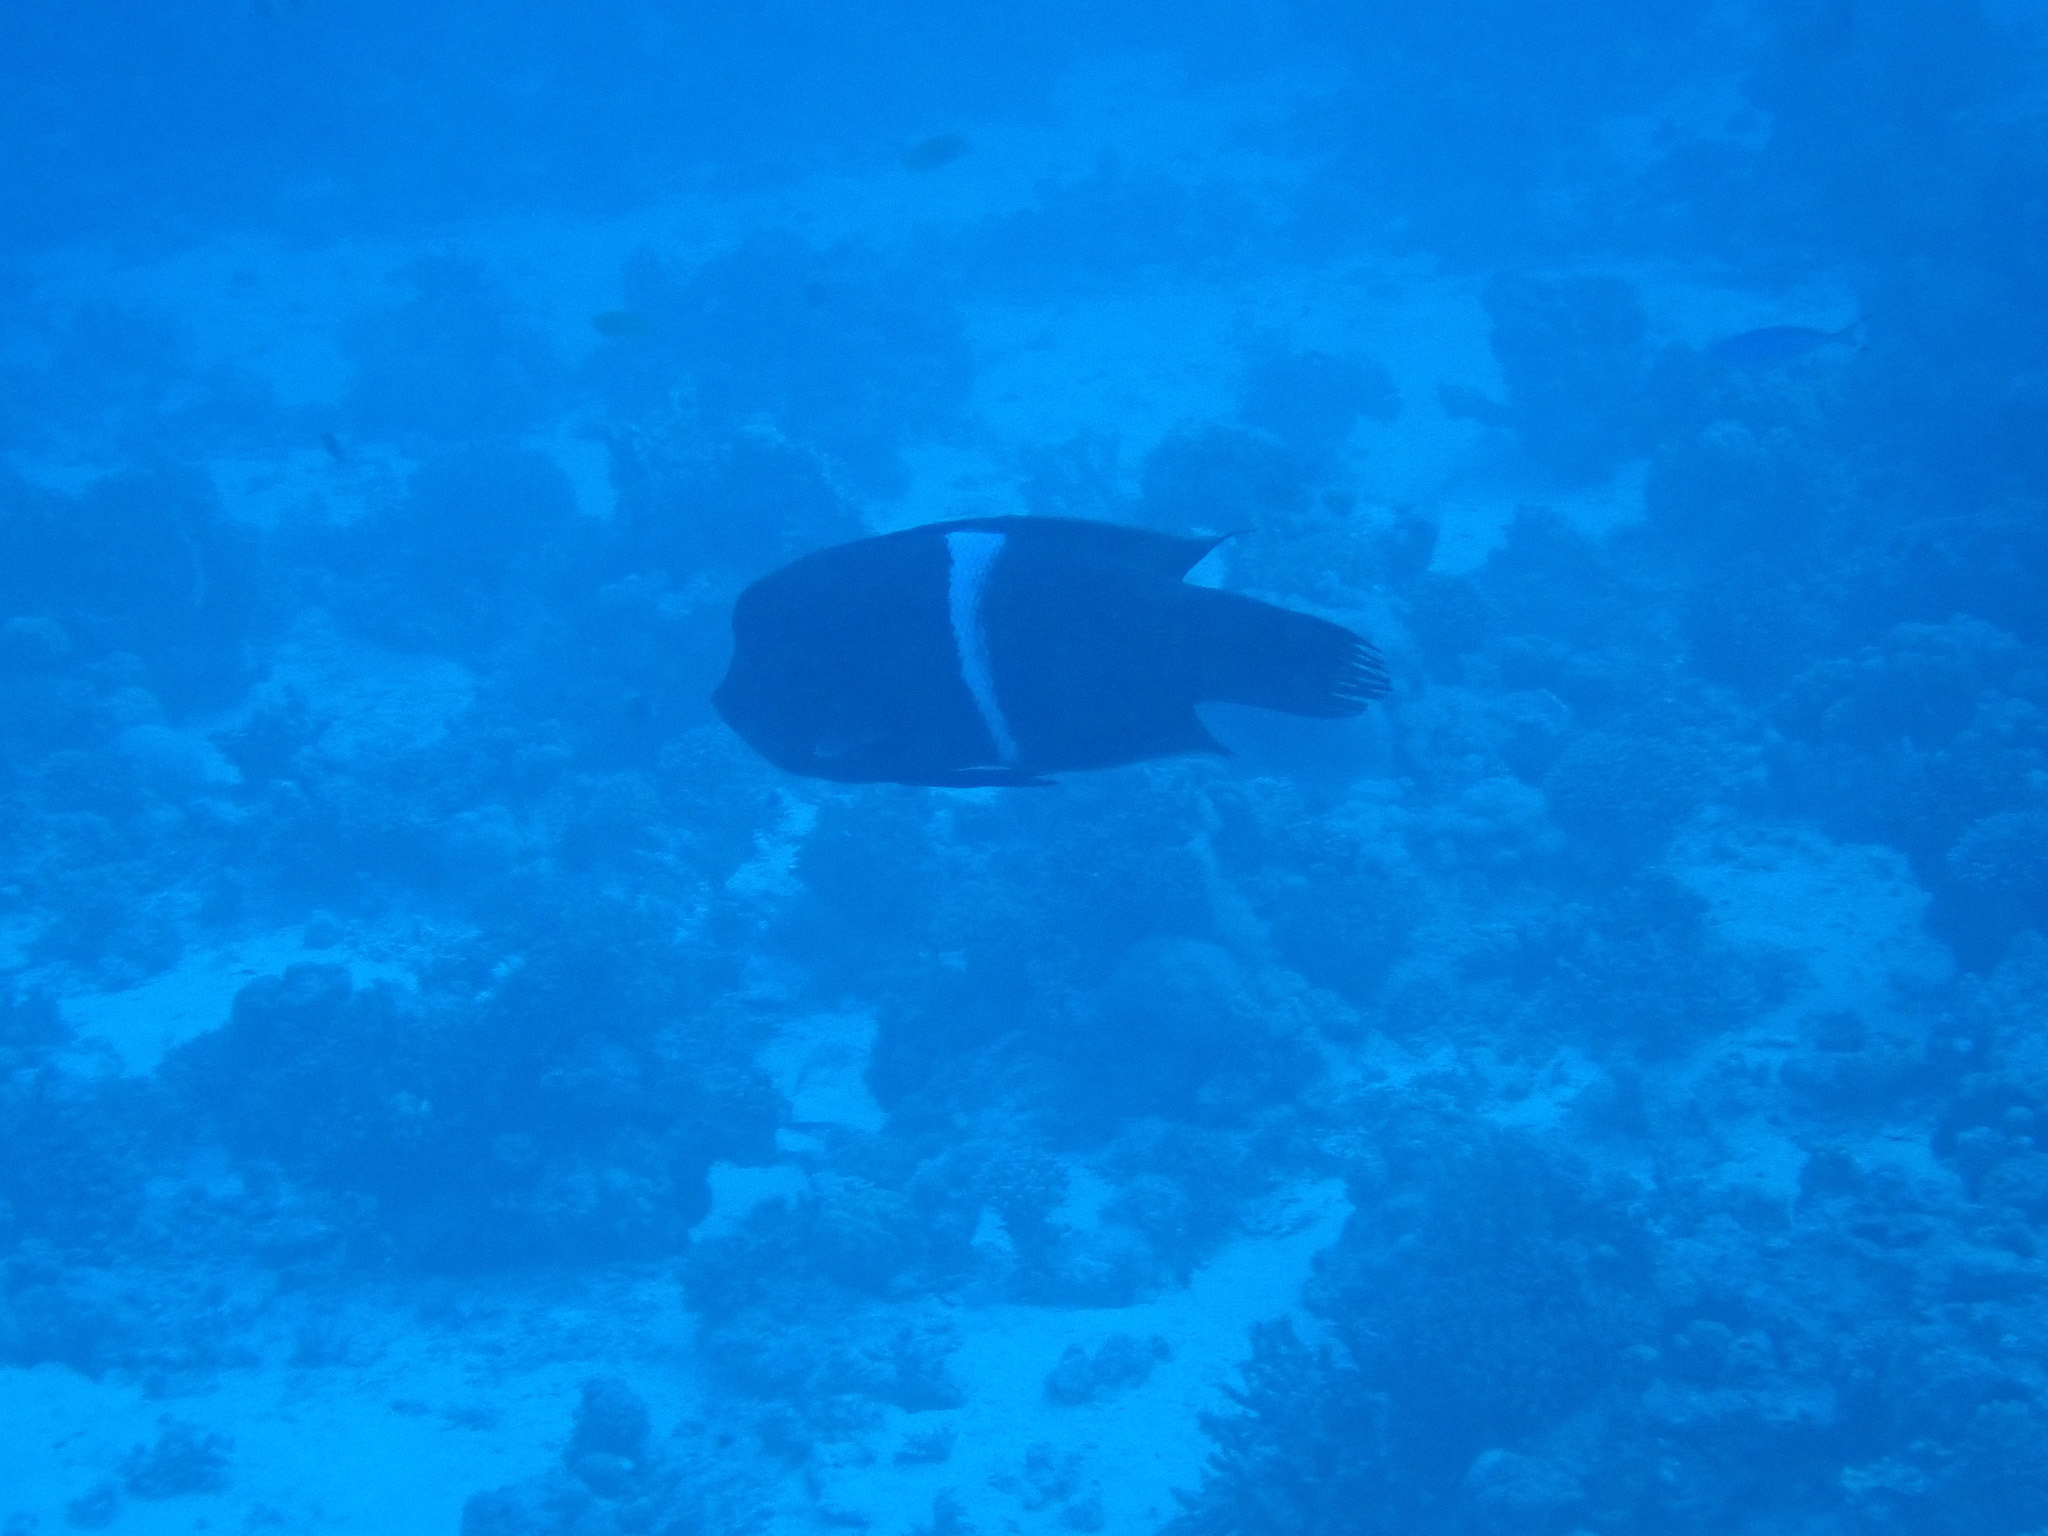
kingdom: Animalia
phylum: Chordata
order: Perciformes
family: Labridae
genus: Coris
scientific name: Coris aygula
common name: Clown coris
